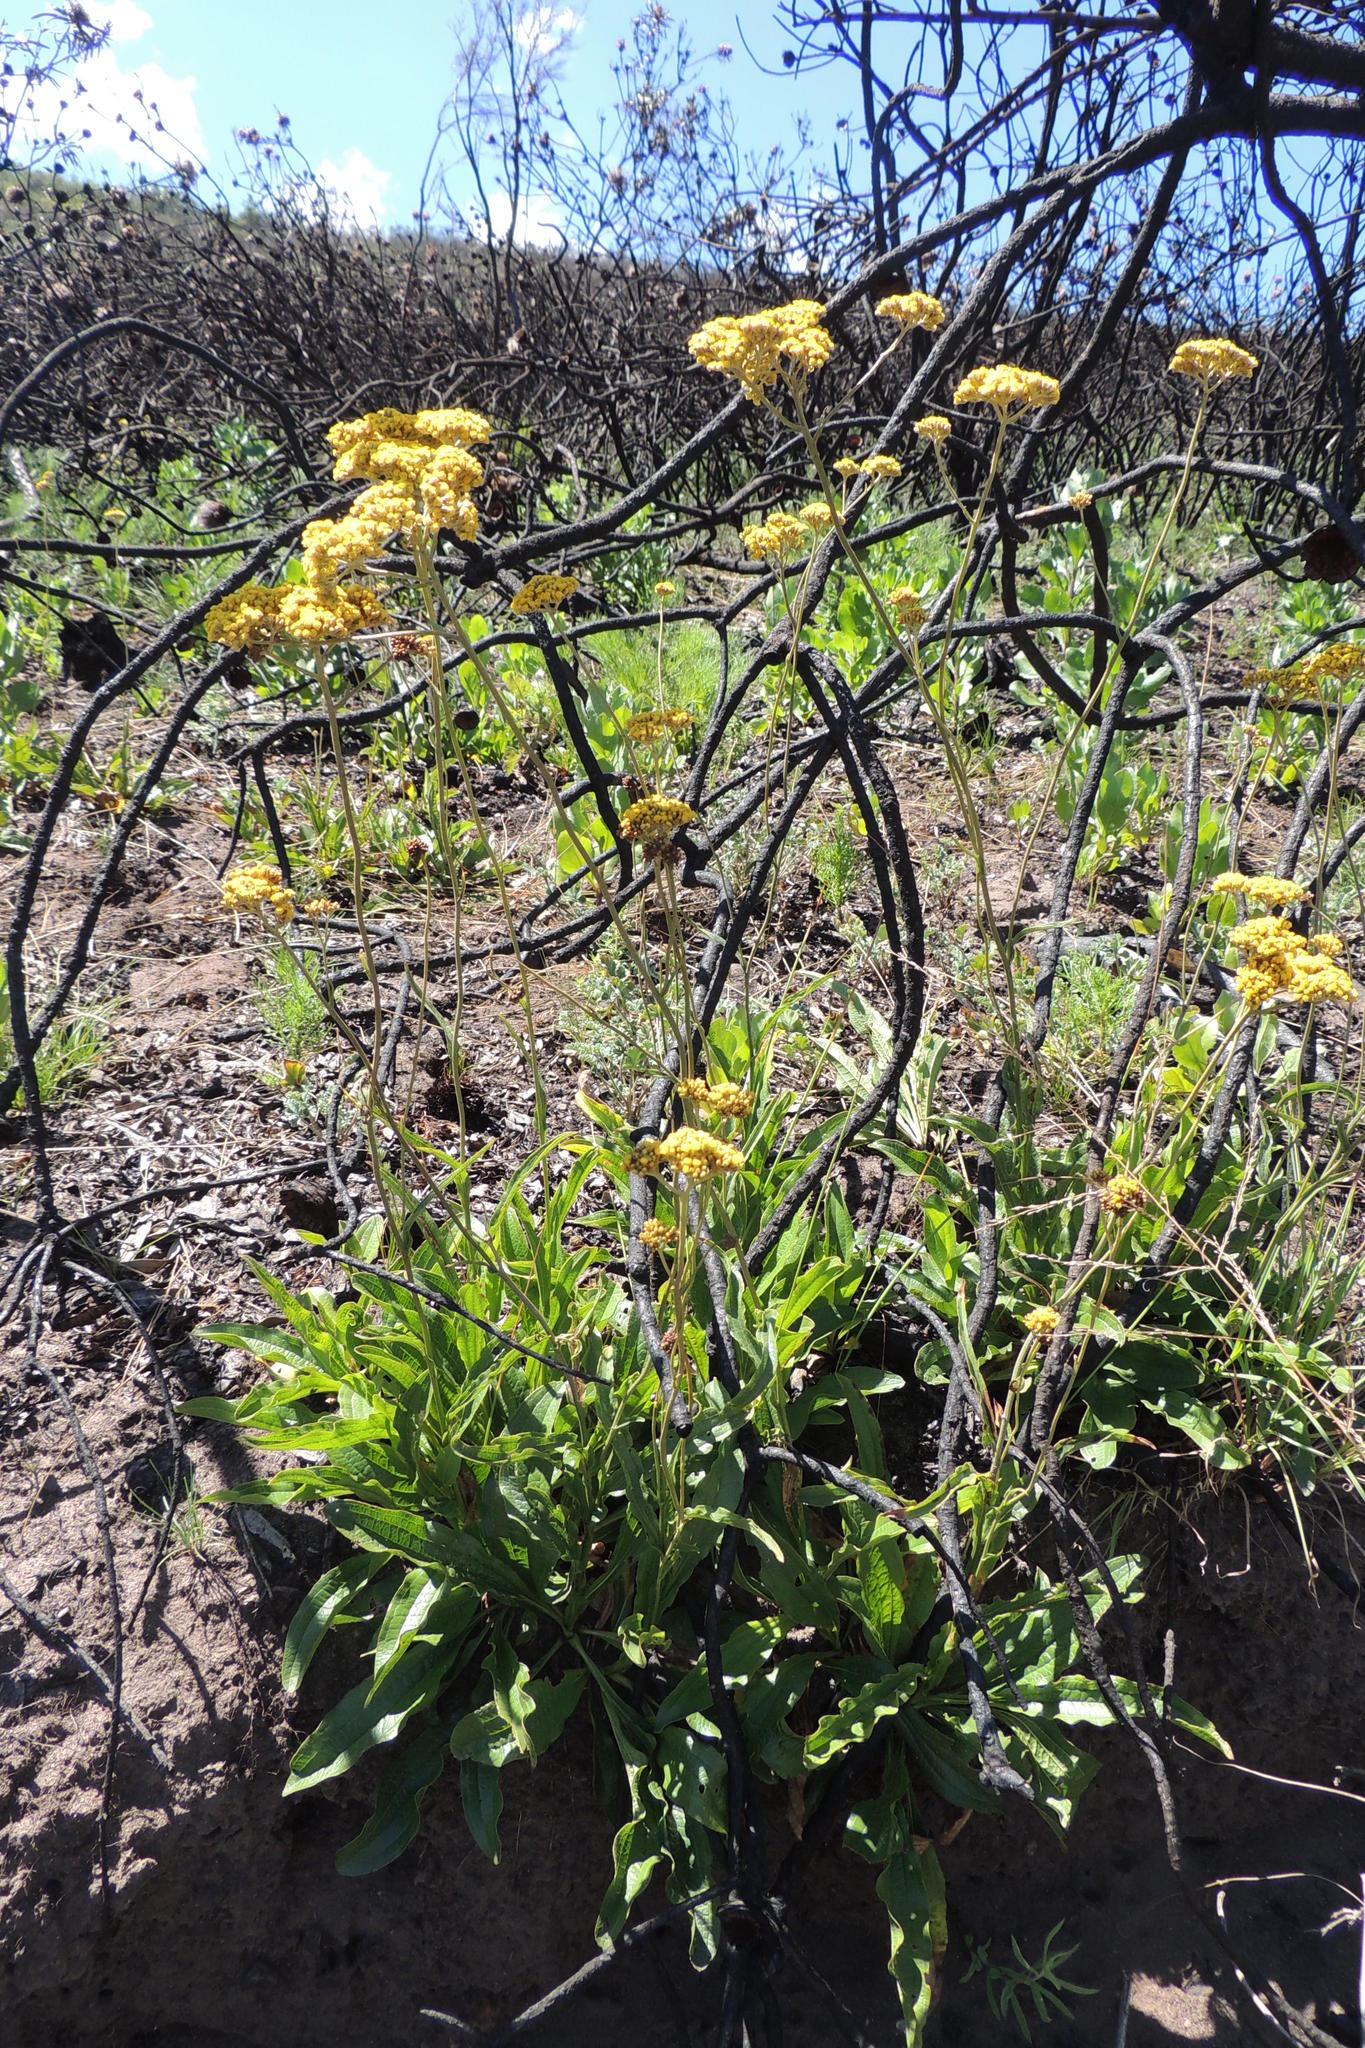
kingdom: Plantae
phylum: Tracheophyta
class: Magnoliopsida
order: Asterales
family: Asteraceae
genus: Helichrysum
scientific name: Helichrysum nudifolium
